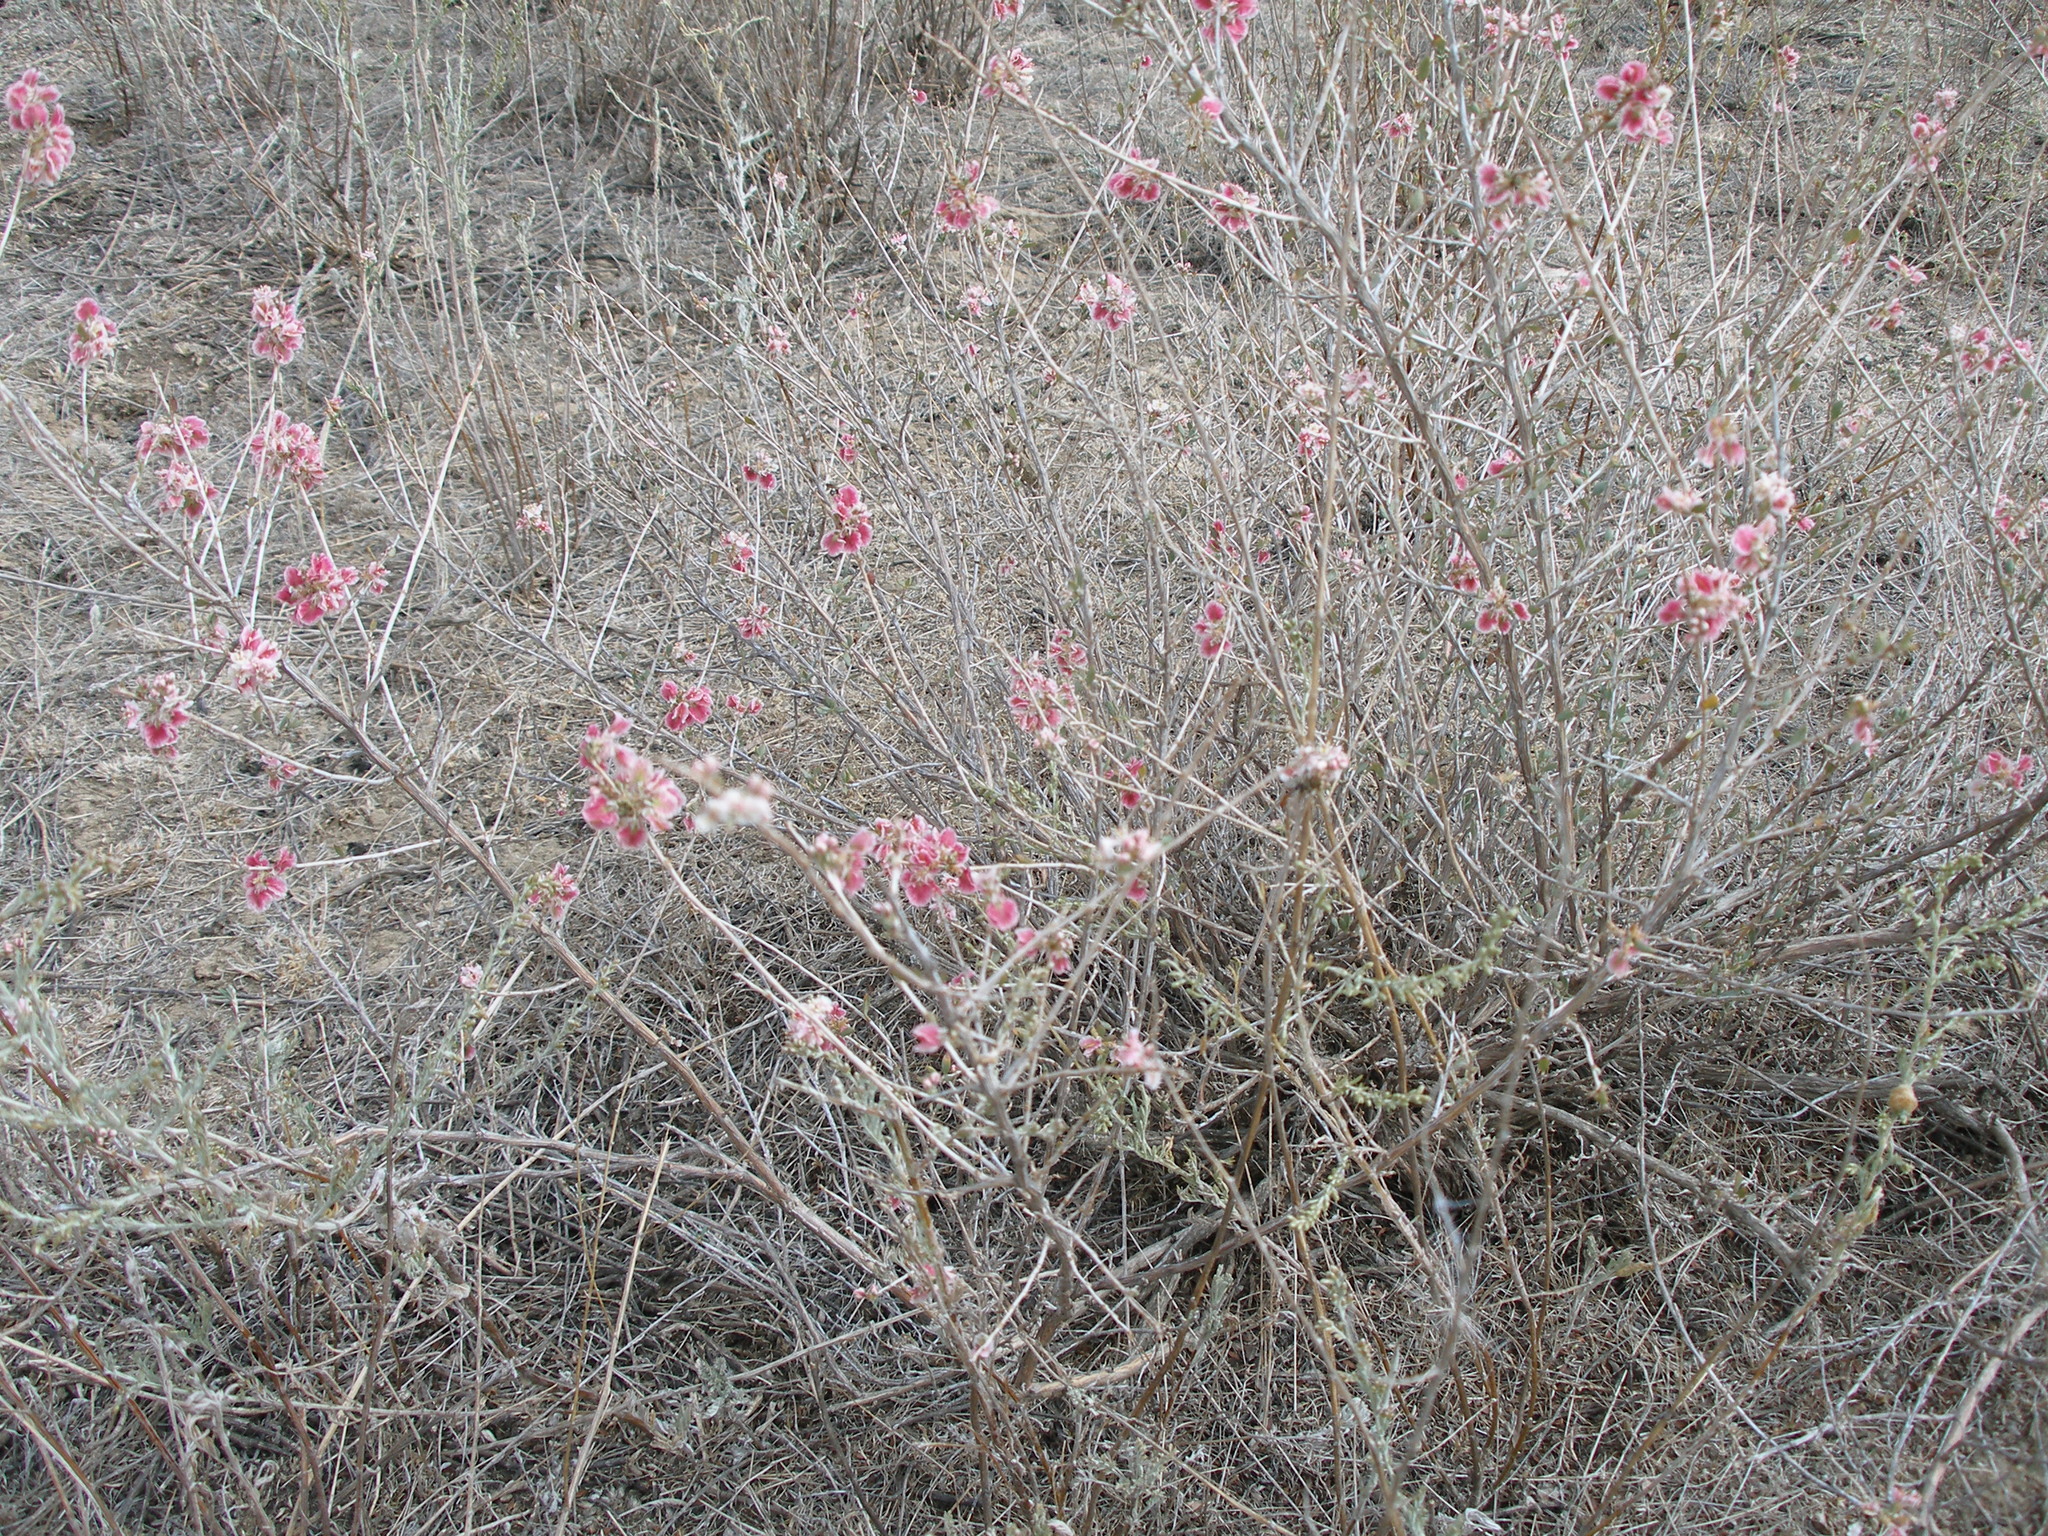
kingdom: Plantae
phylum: Tracheophyta
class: Magnoliopsida
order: Caryophyllales
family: Polygonaceae
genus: Atraphaxis
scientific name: Atraphaxis decipiens
